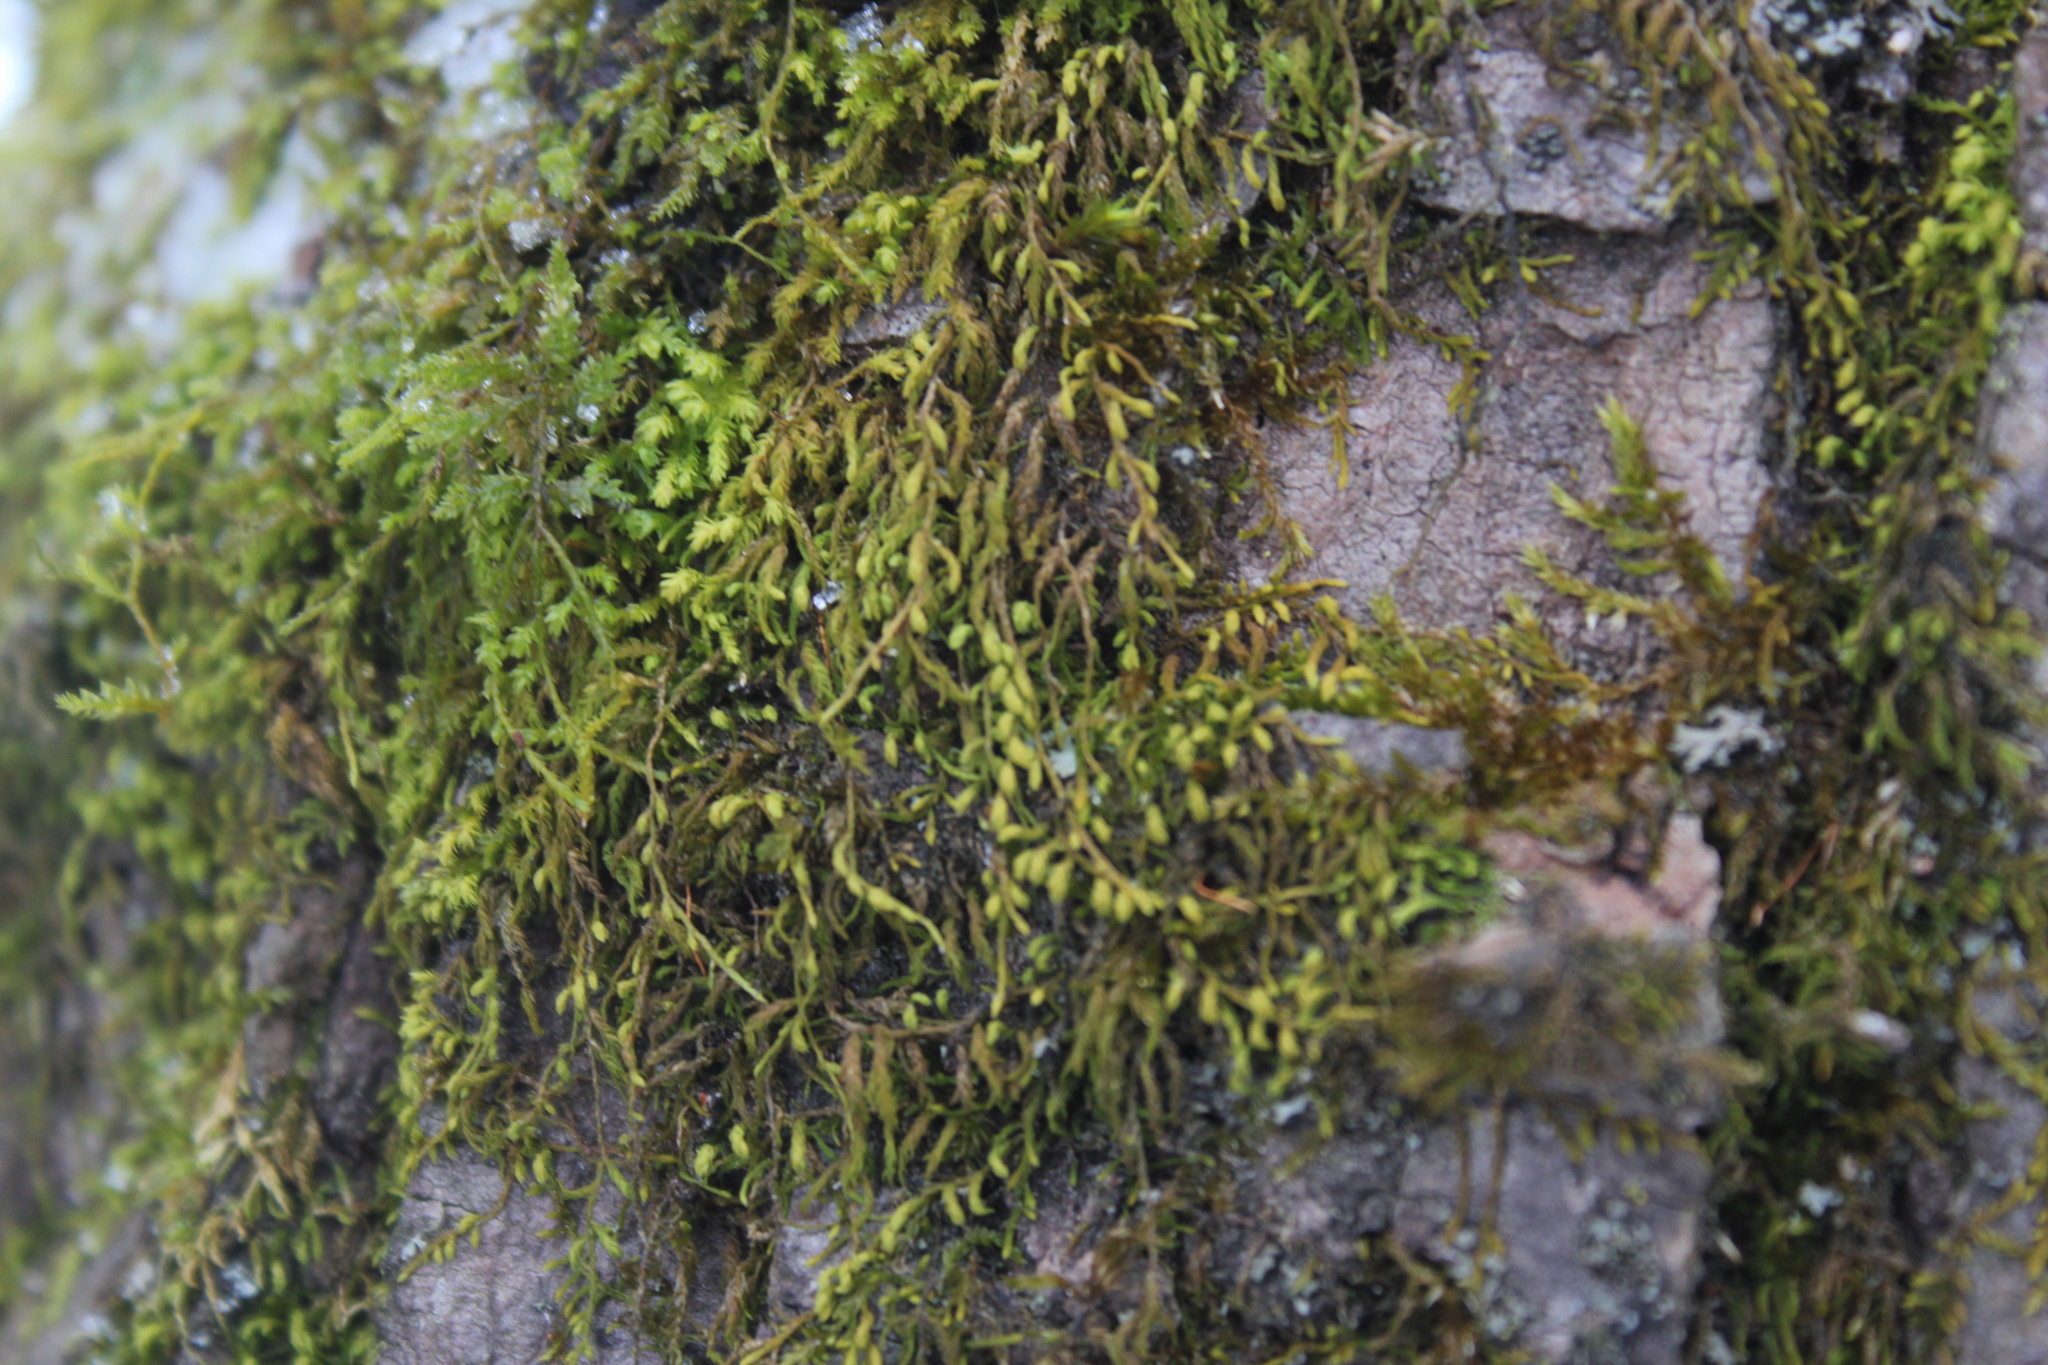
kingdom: Plantae
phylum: Bryophyta
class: Bryopsida
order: Hypnales
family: Neckeraceae
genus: Pseudanomodon
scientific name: Pseudanomodon attenuatus
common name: Tree-skirt moss
